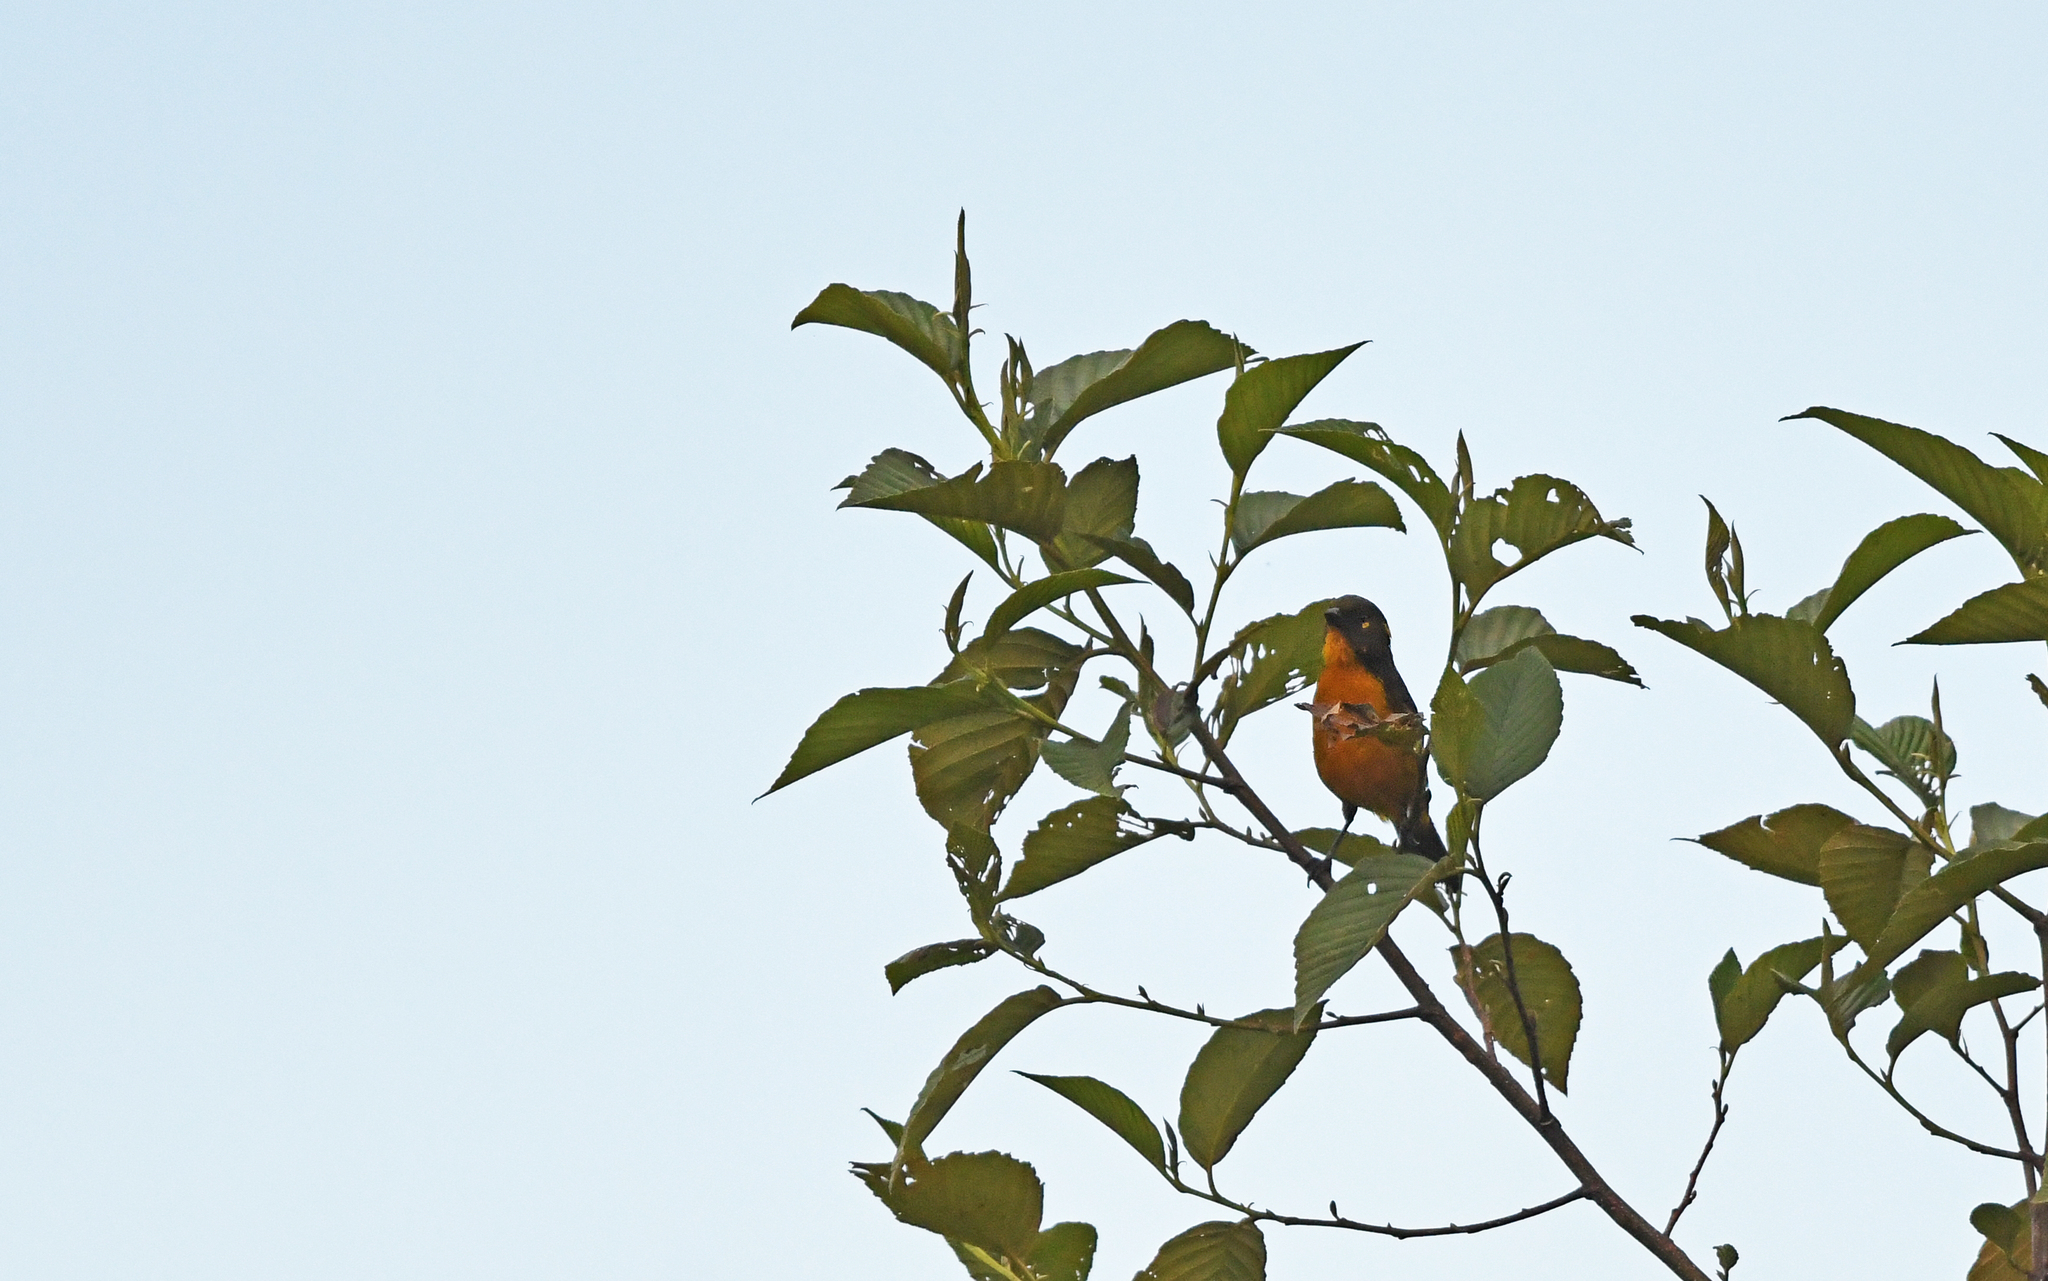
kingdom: Animalia
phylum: Chordata
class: Aves
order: Passeriformes
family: Thraupidae
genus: Anisognathus
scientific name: Anisognathus lacrymosus
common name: Lacrimose mountain-tanager
